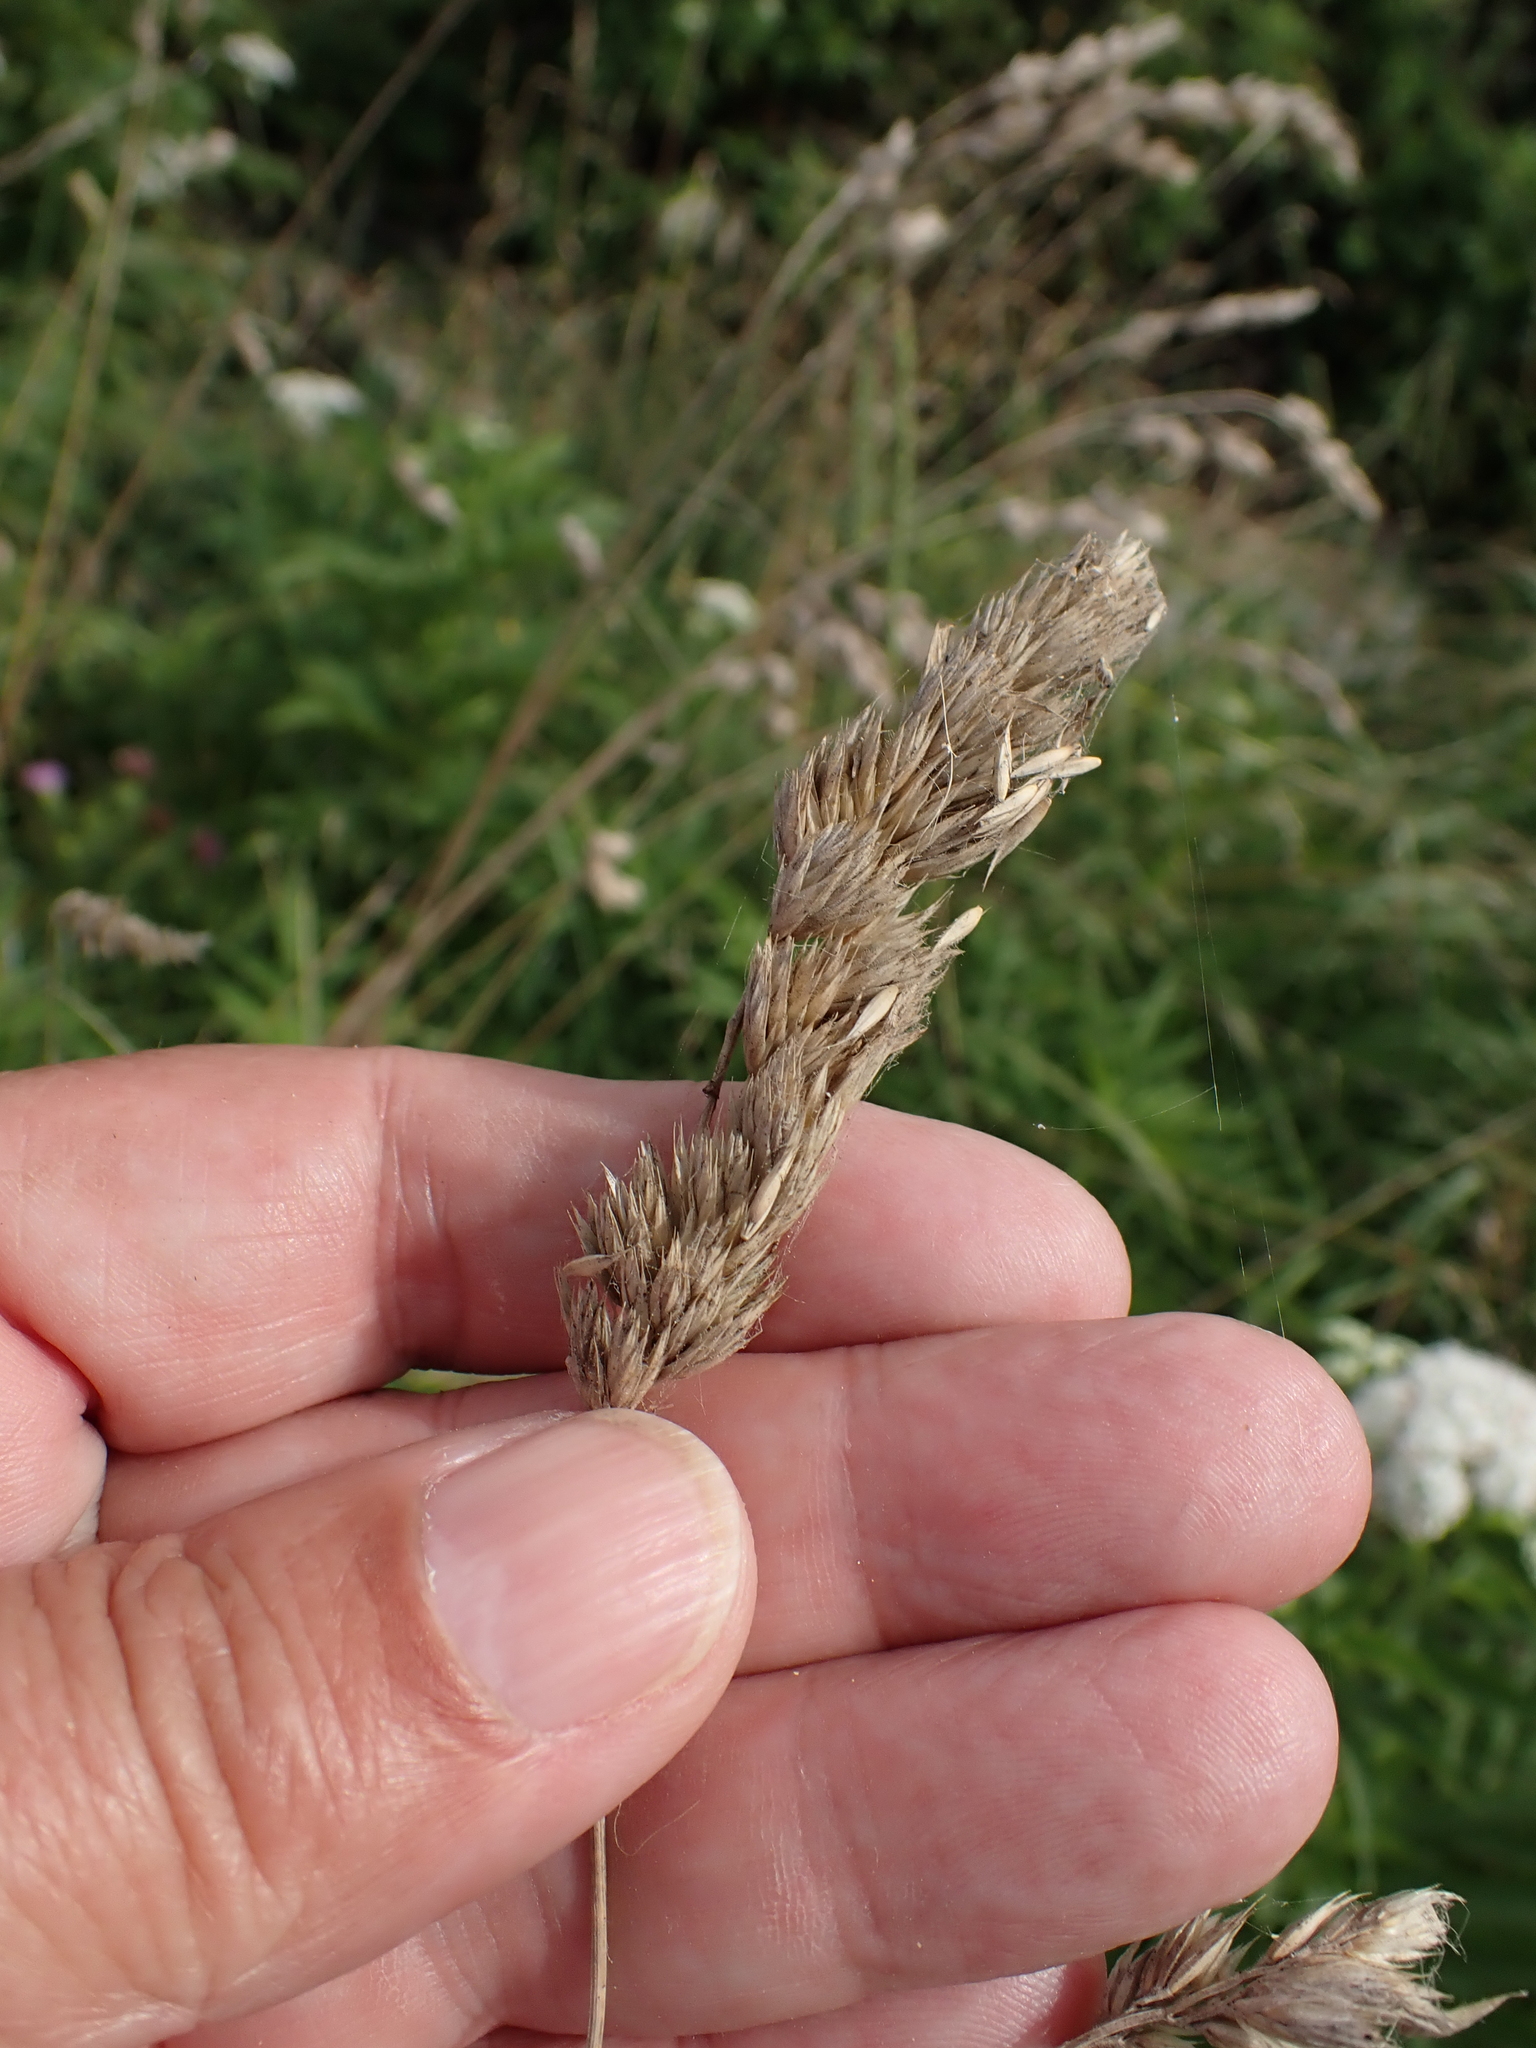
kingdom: Plantae
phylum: Tracheophyta
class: Liliopsida
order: Poales
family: Poaceae
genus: Dactylis
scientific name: Dactylis glomerata
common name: Orchardgrass
